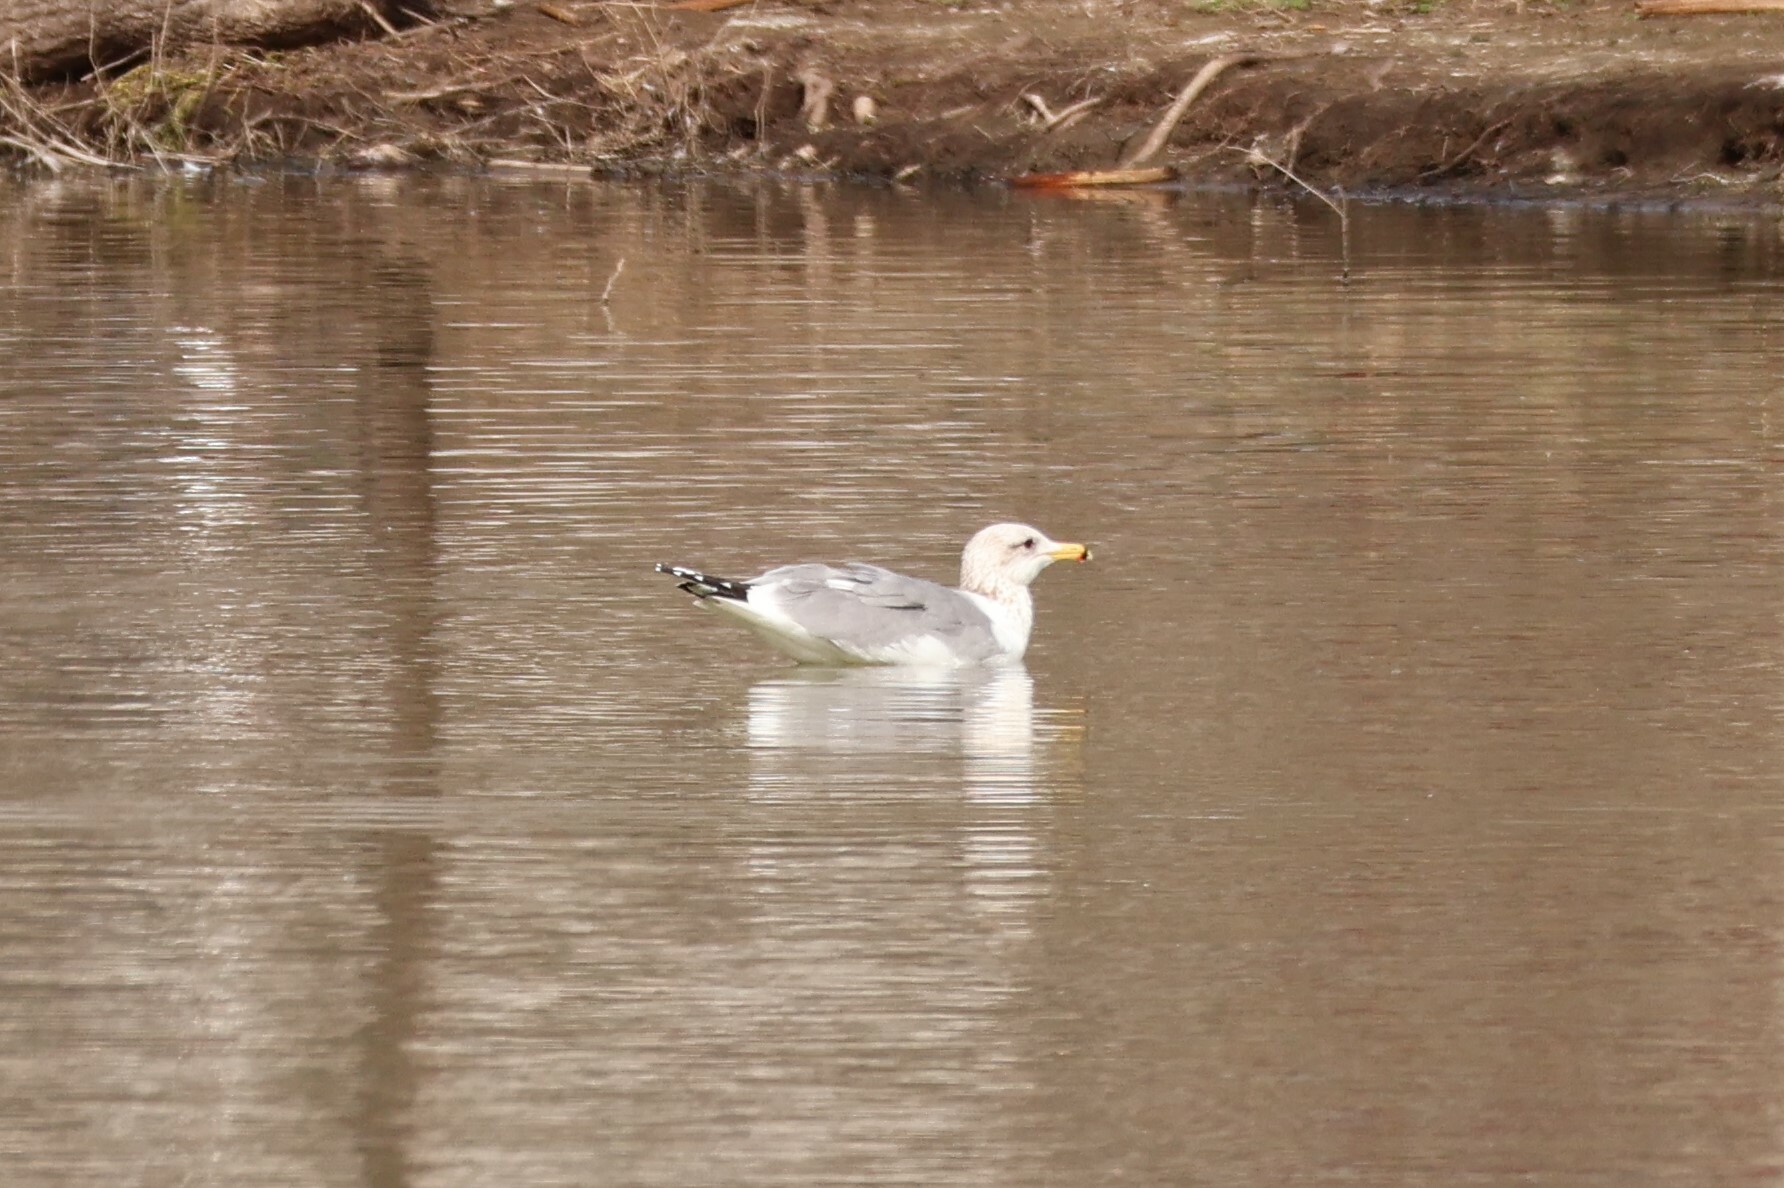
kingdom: Animalia
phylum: Chordata
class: Aves
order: Charadriiformes
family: Laridae
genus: Larus
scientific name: Larus californicus
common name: California gull
